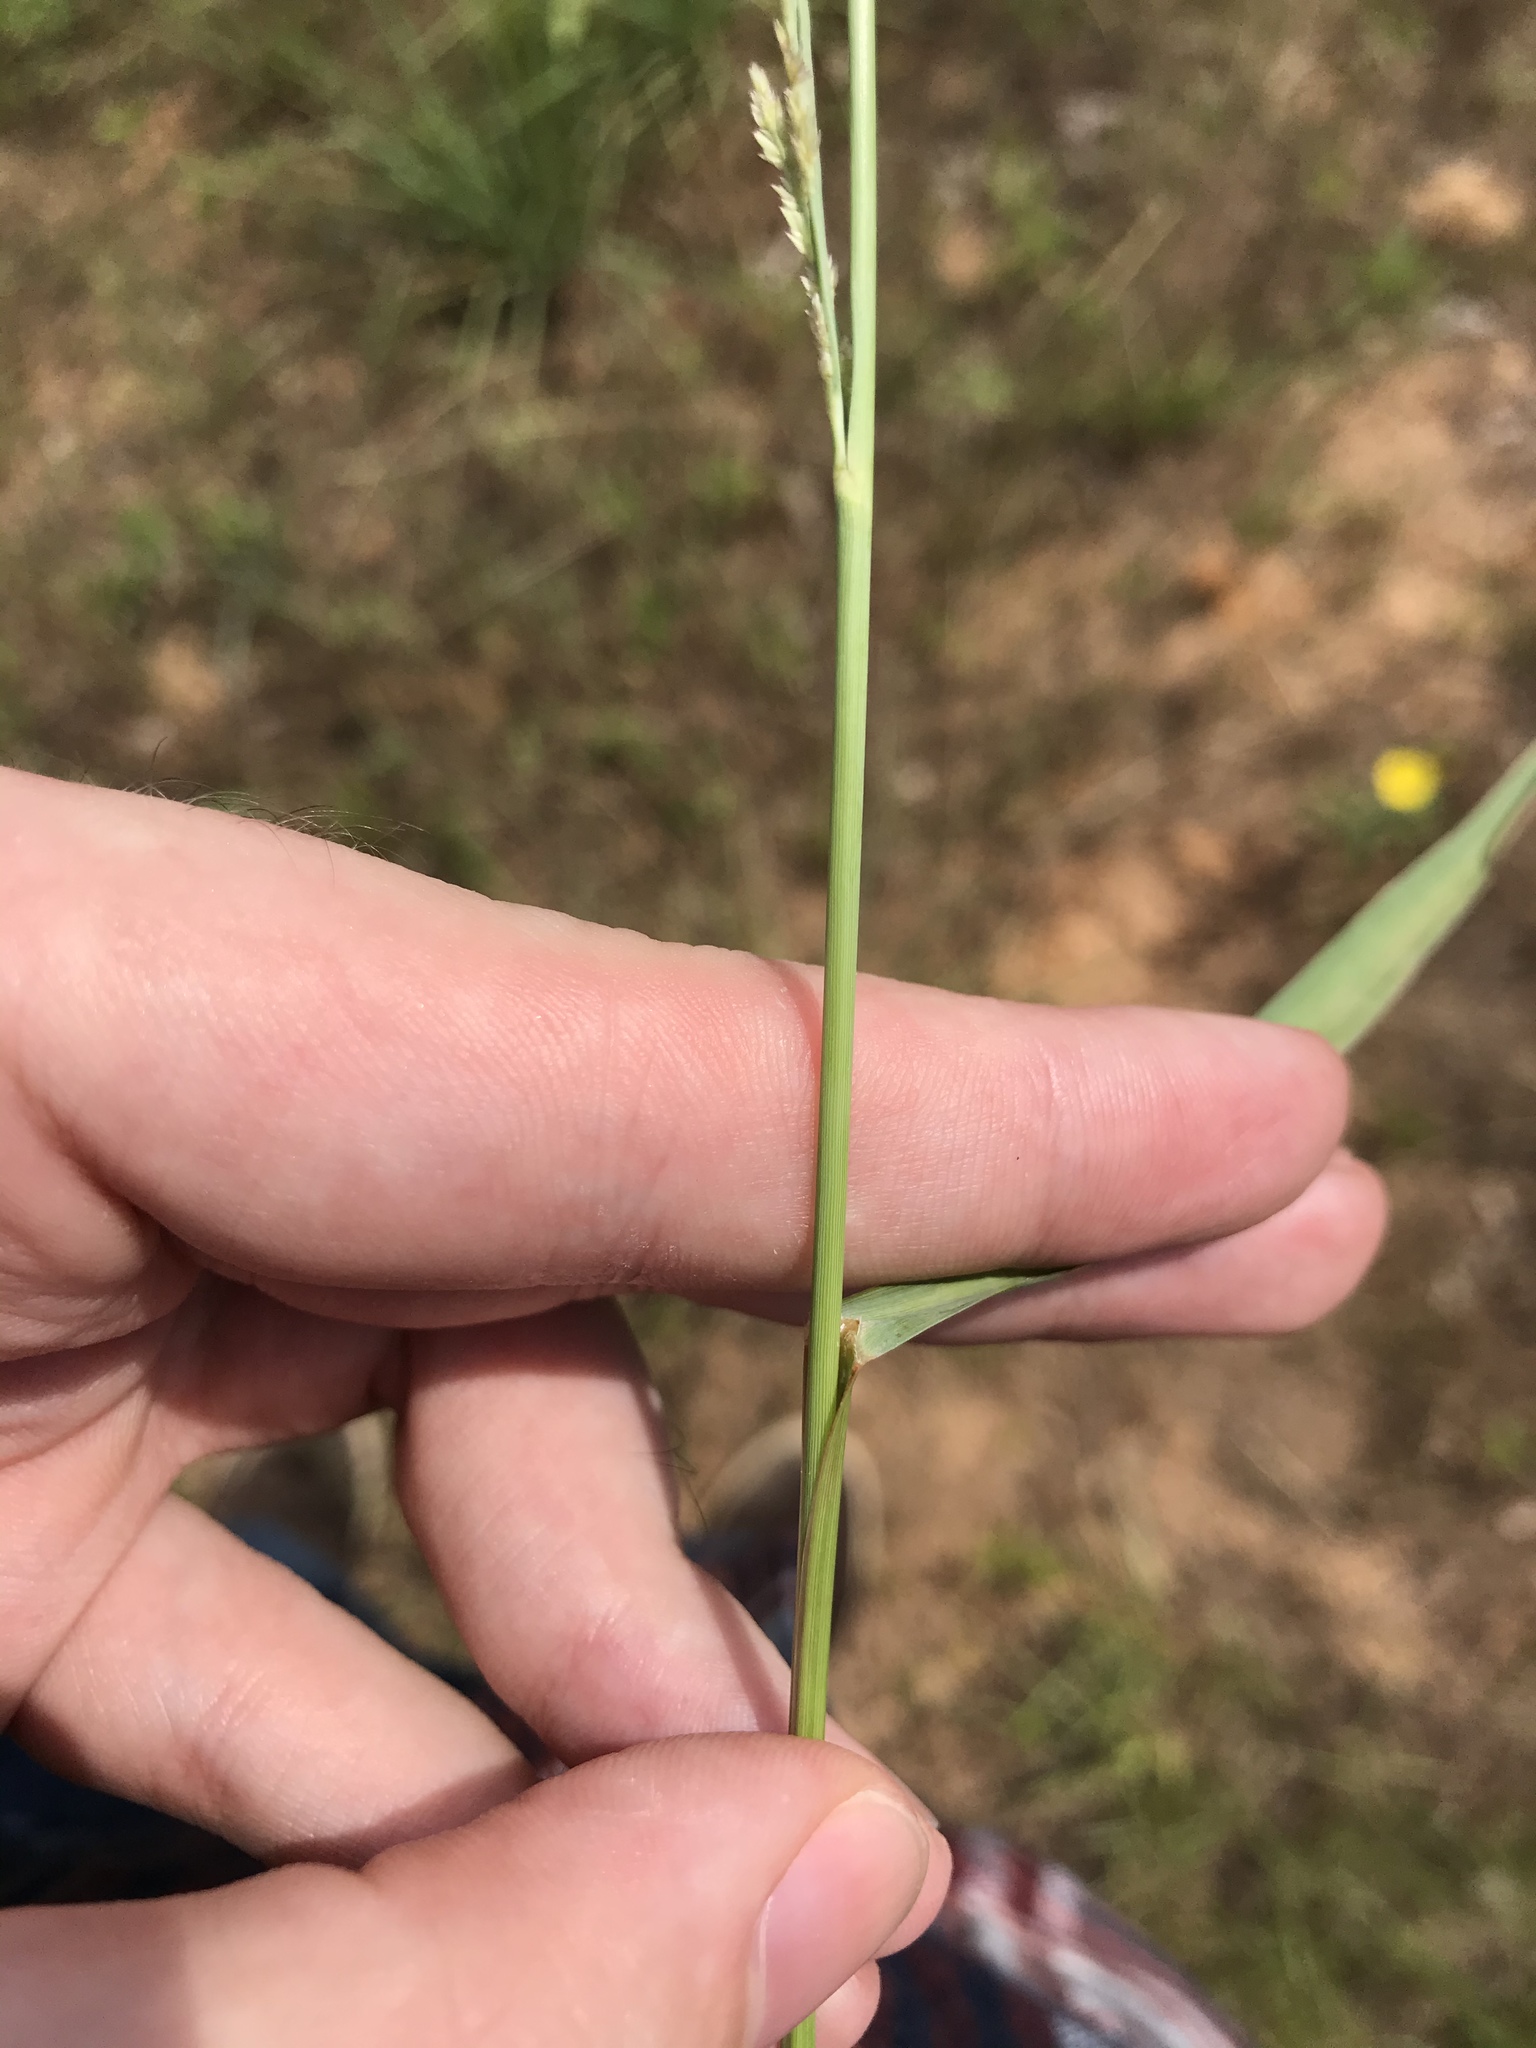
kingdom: Plantae
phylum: Tracheophyta
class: Liliopsida
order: Poales
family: Poaceae
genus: Eragrostis
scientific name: Eragrostis secundiflora
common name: Red love grass
